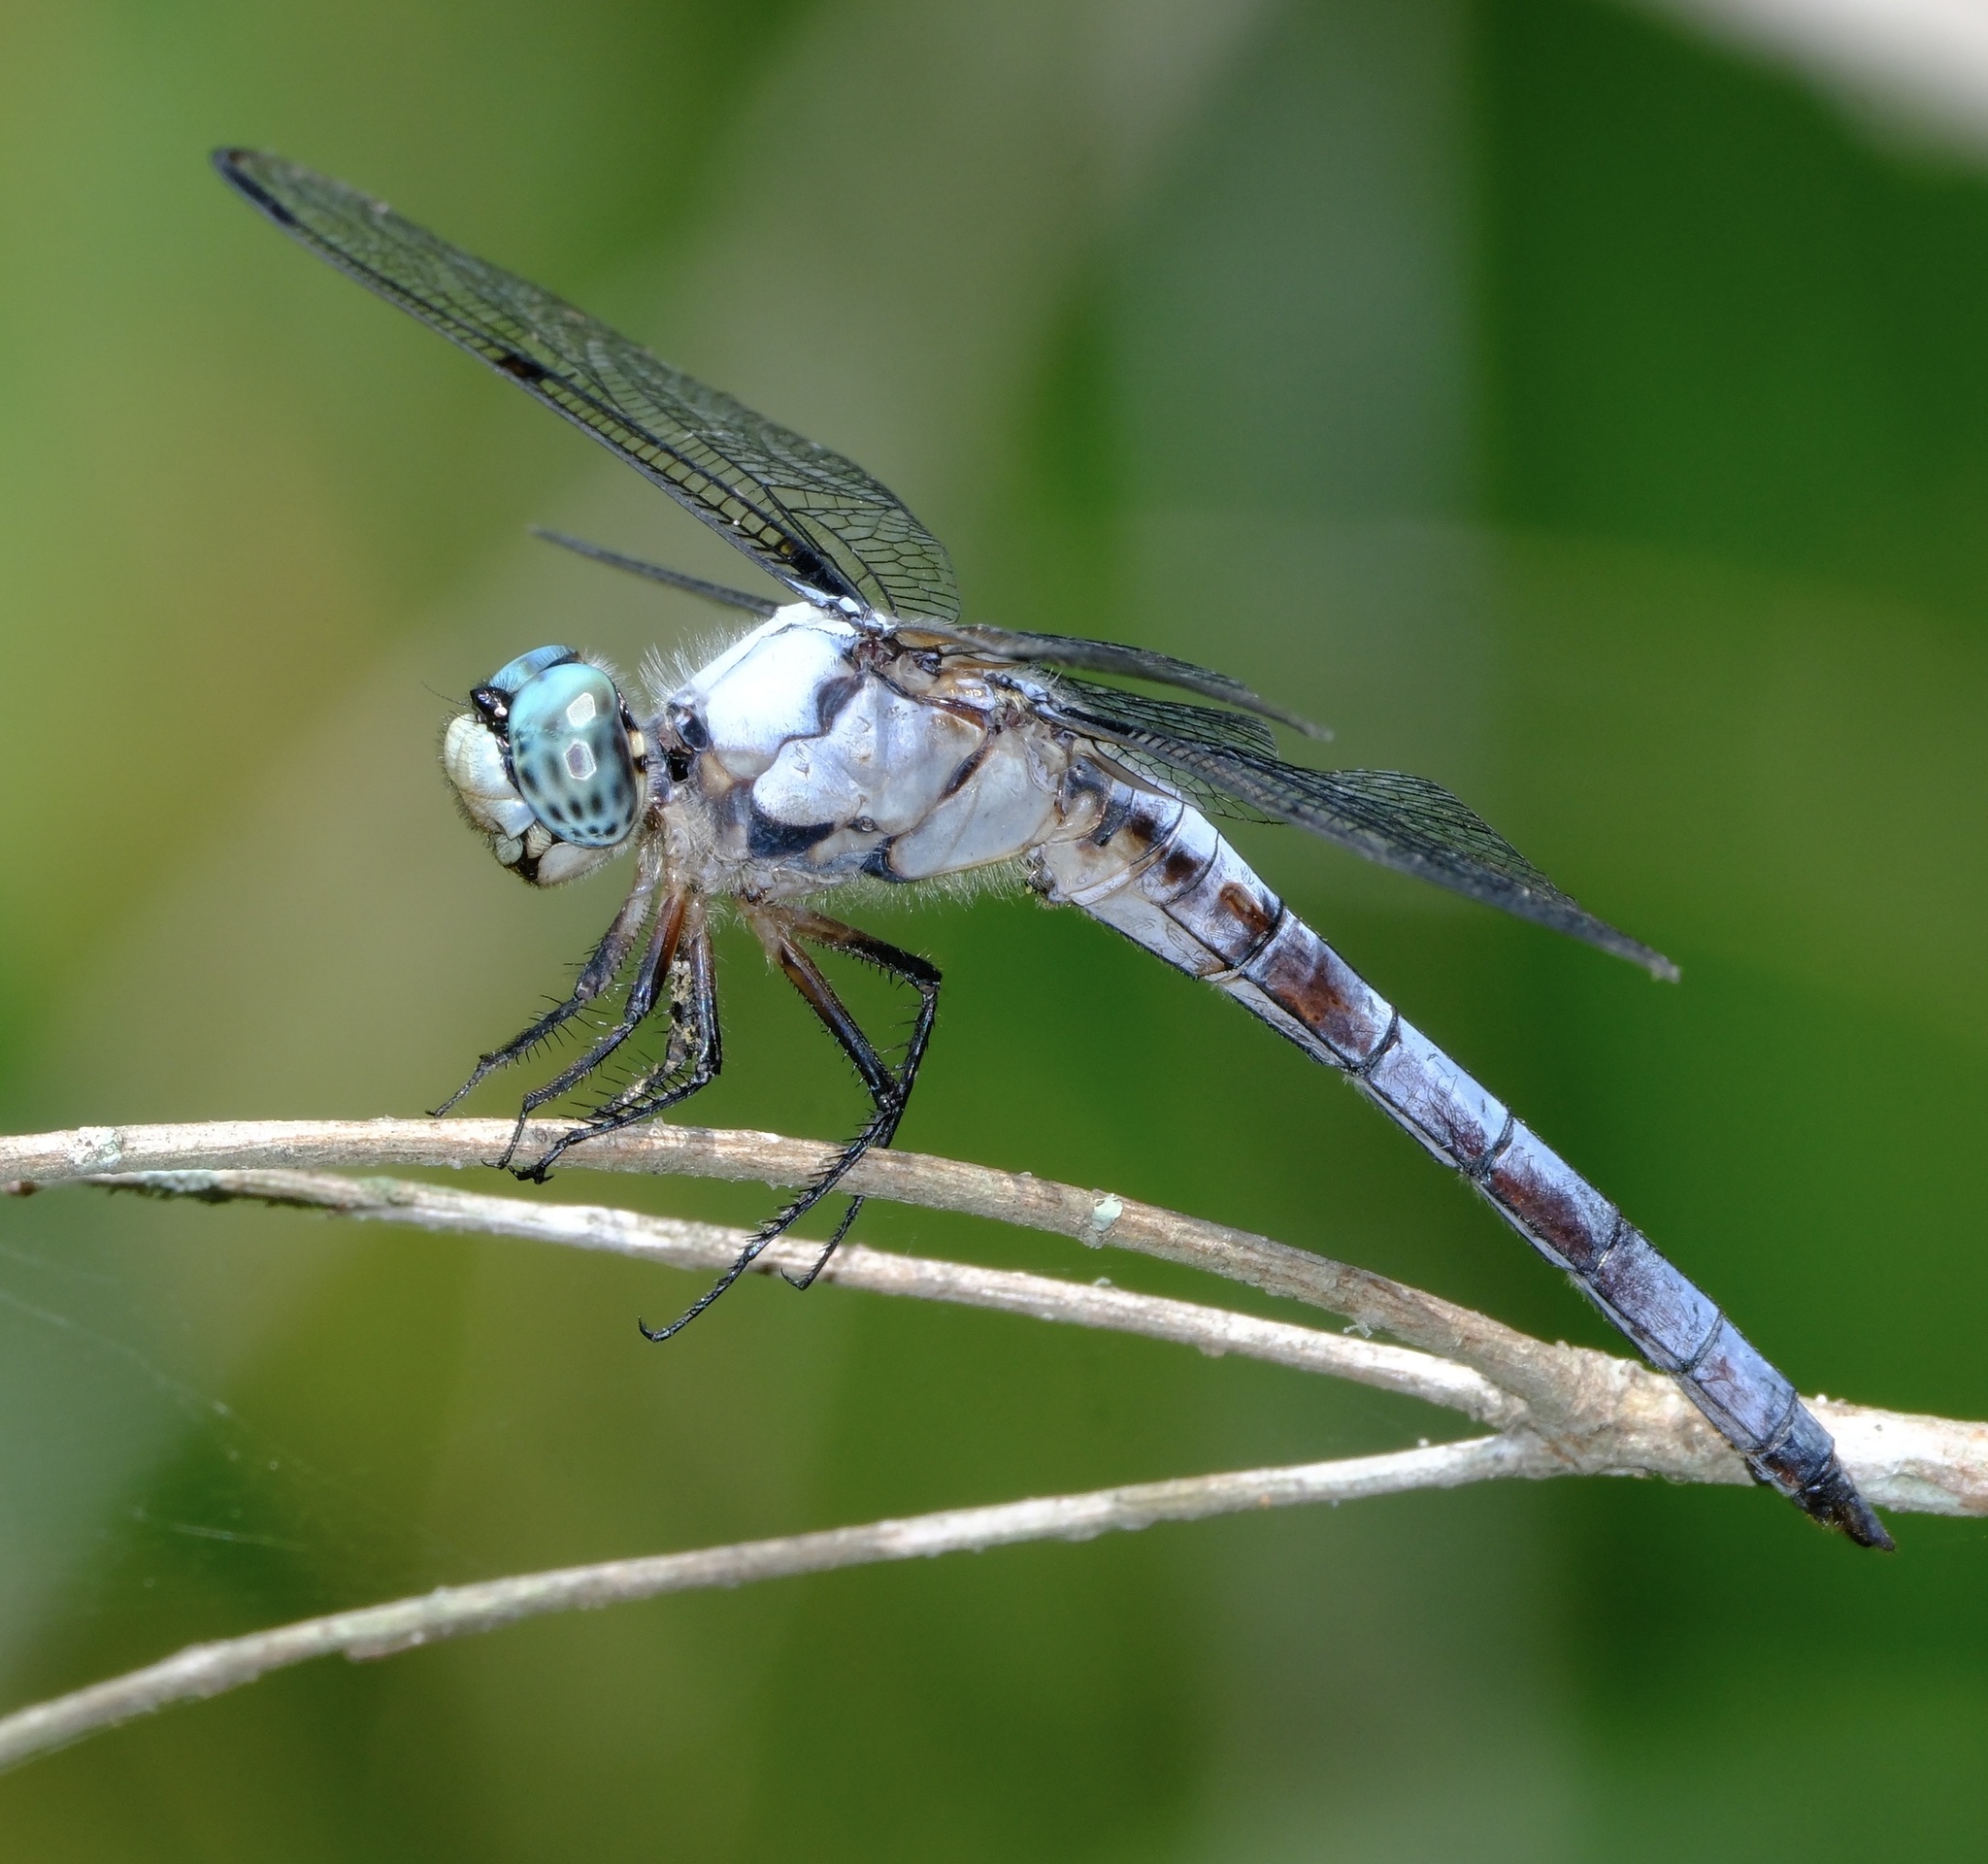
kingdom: Animalia
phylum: Arthropoda
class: Insecta
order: Odonata
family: Libellulidae
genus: Libellula
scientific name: Libellula vibrans
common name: Great blue skimmer
